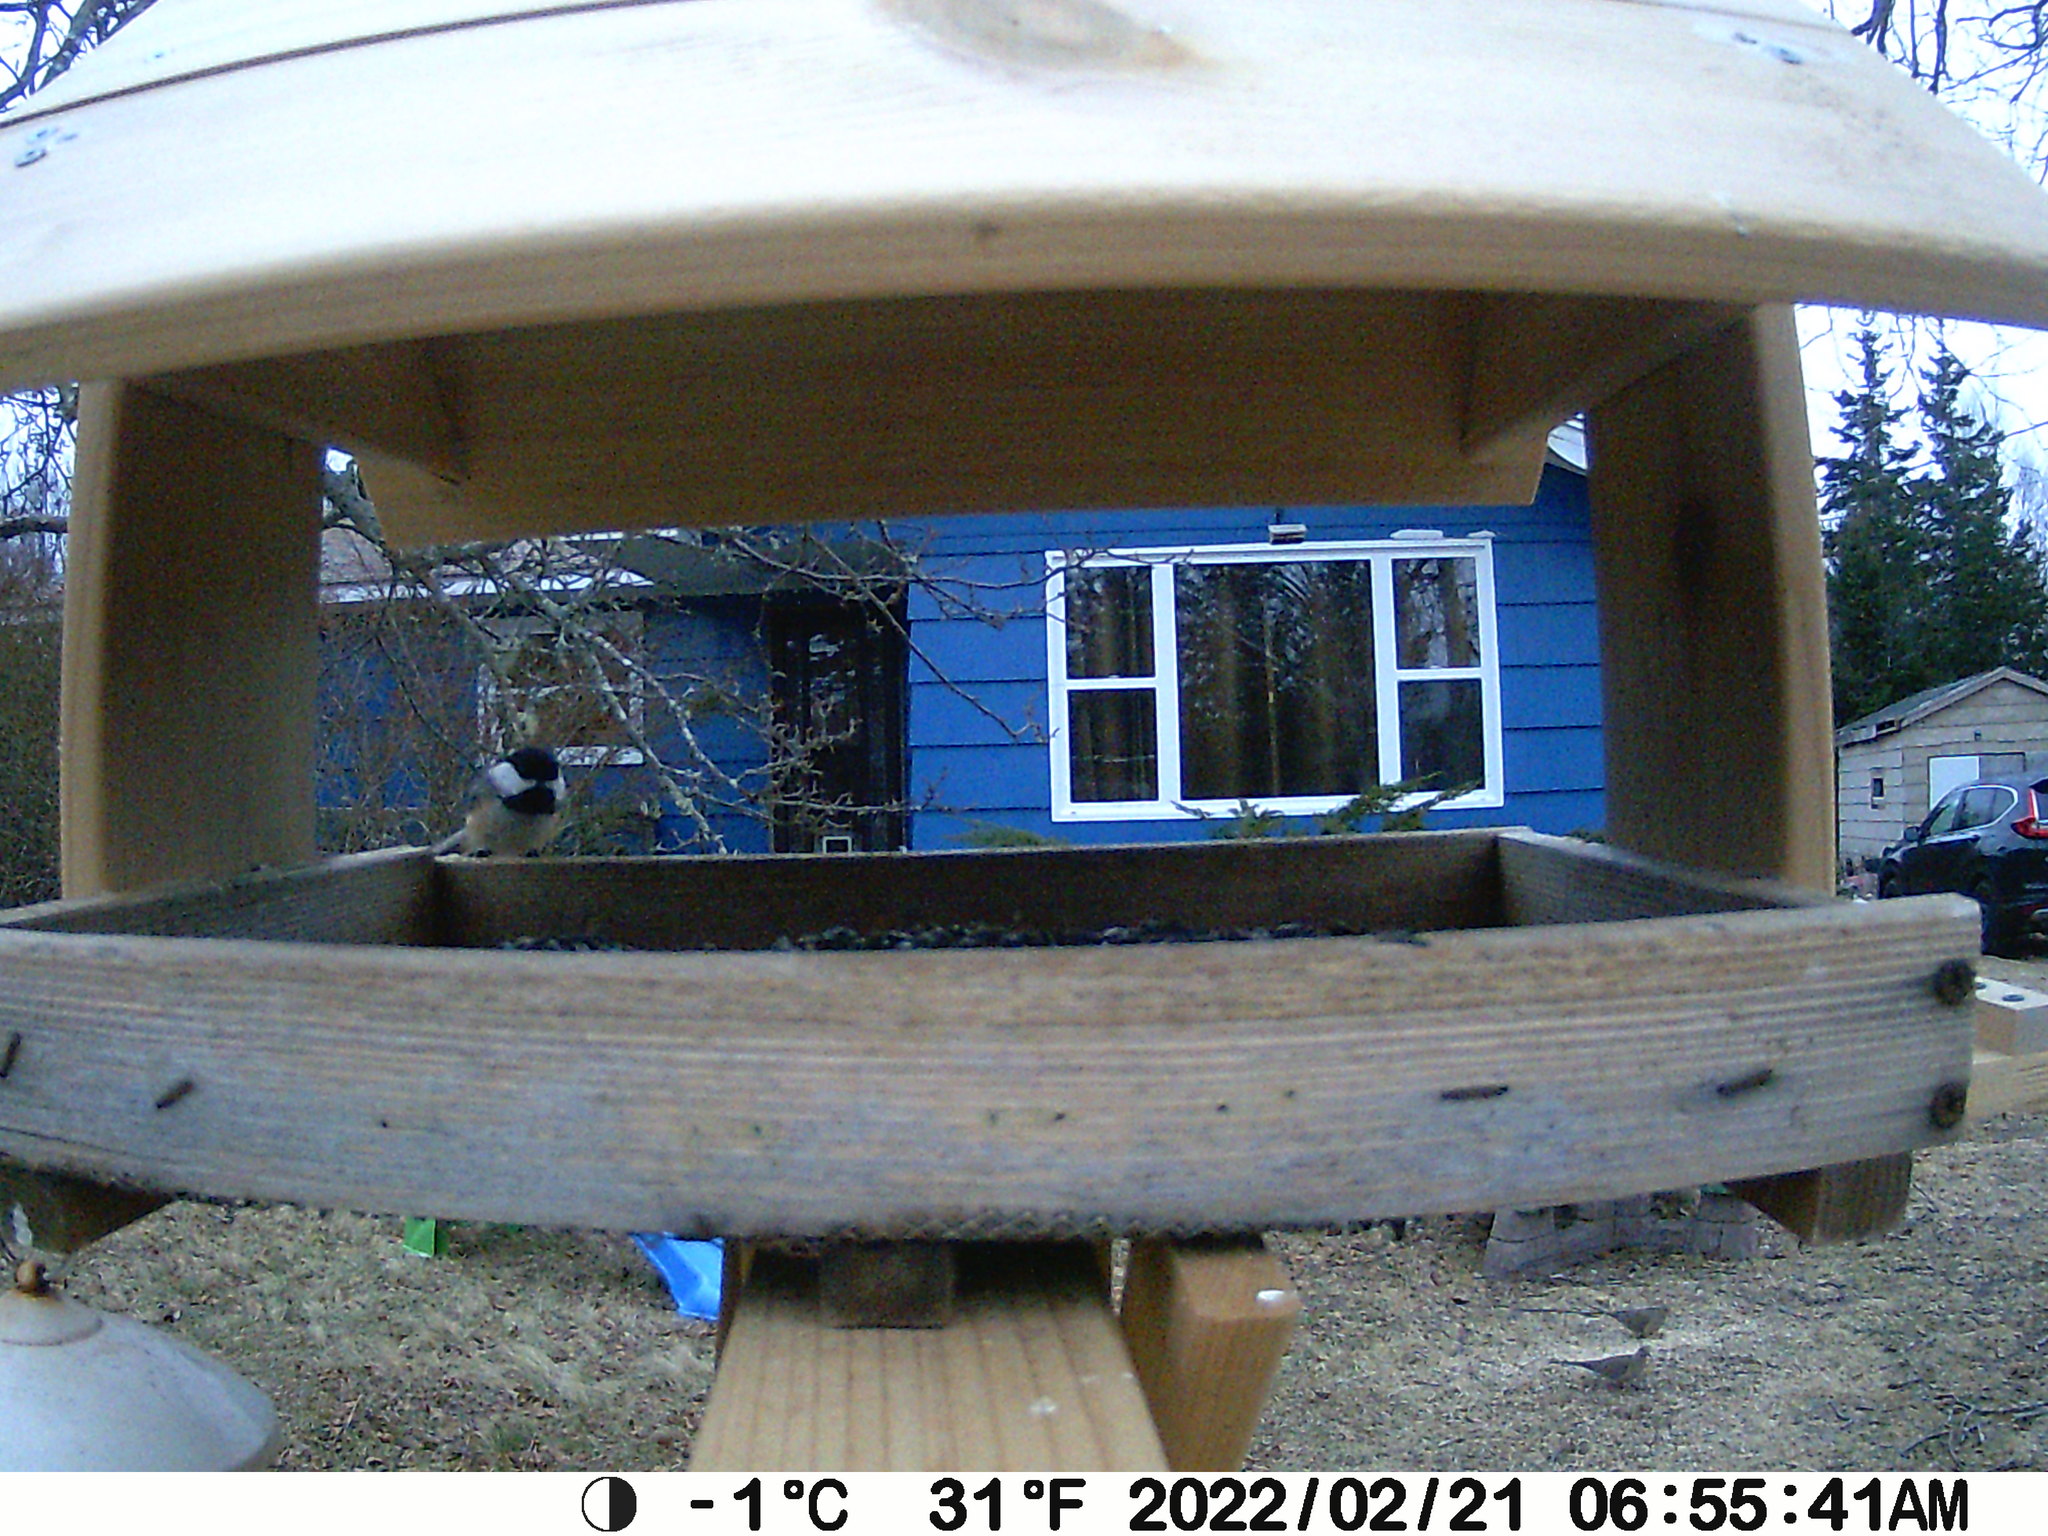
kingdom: Animalia
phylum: Chordata
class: Aves
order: Columbiformes
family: Columbidae
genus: Zenaida
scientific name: Zenaida macroura
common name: Mourning dove
